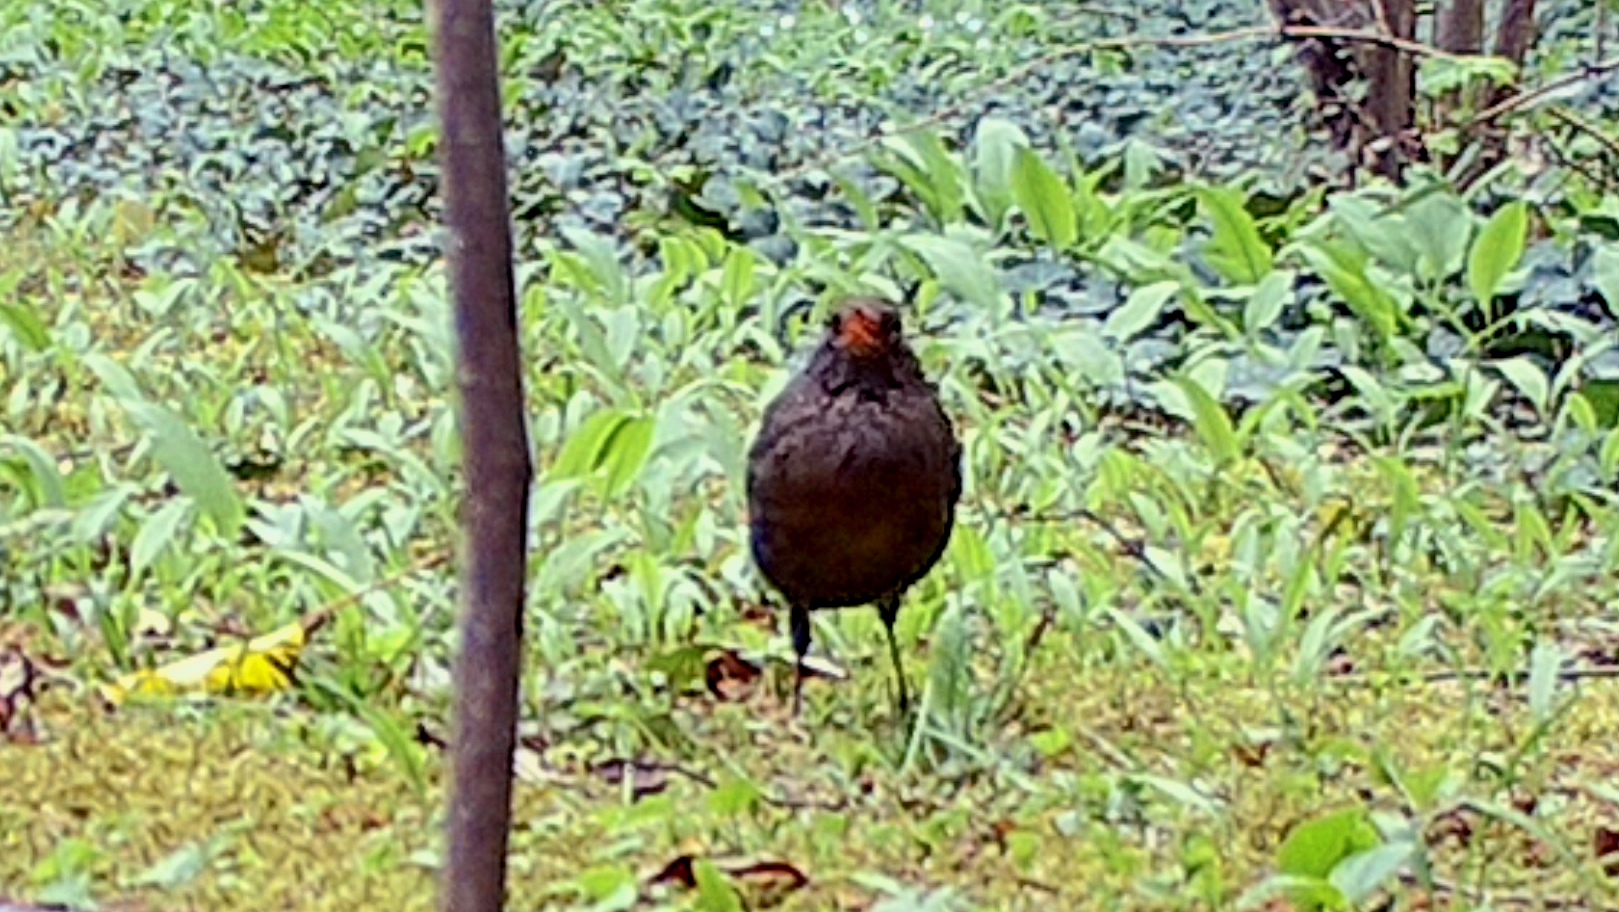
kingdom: Animalia
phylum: Chordata
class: Aves
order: Passeriformes
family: Turdidae
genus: Turdus
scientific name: Turdus merula
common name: Common blackbird
